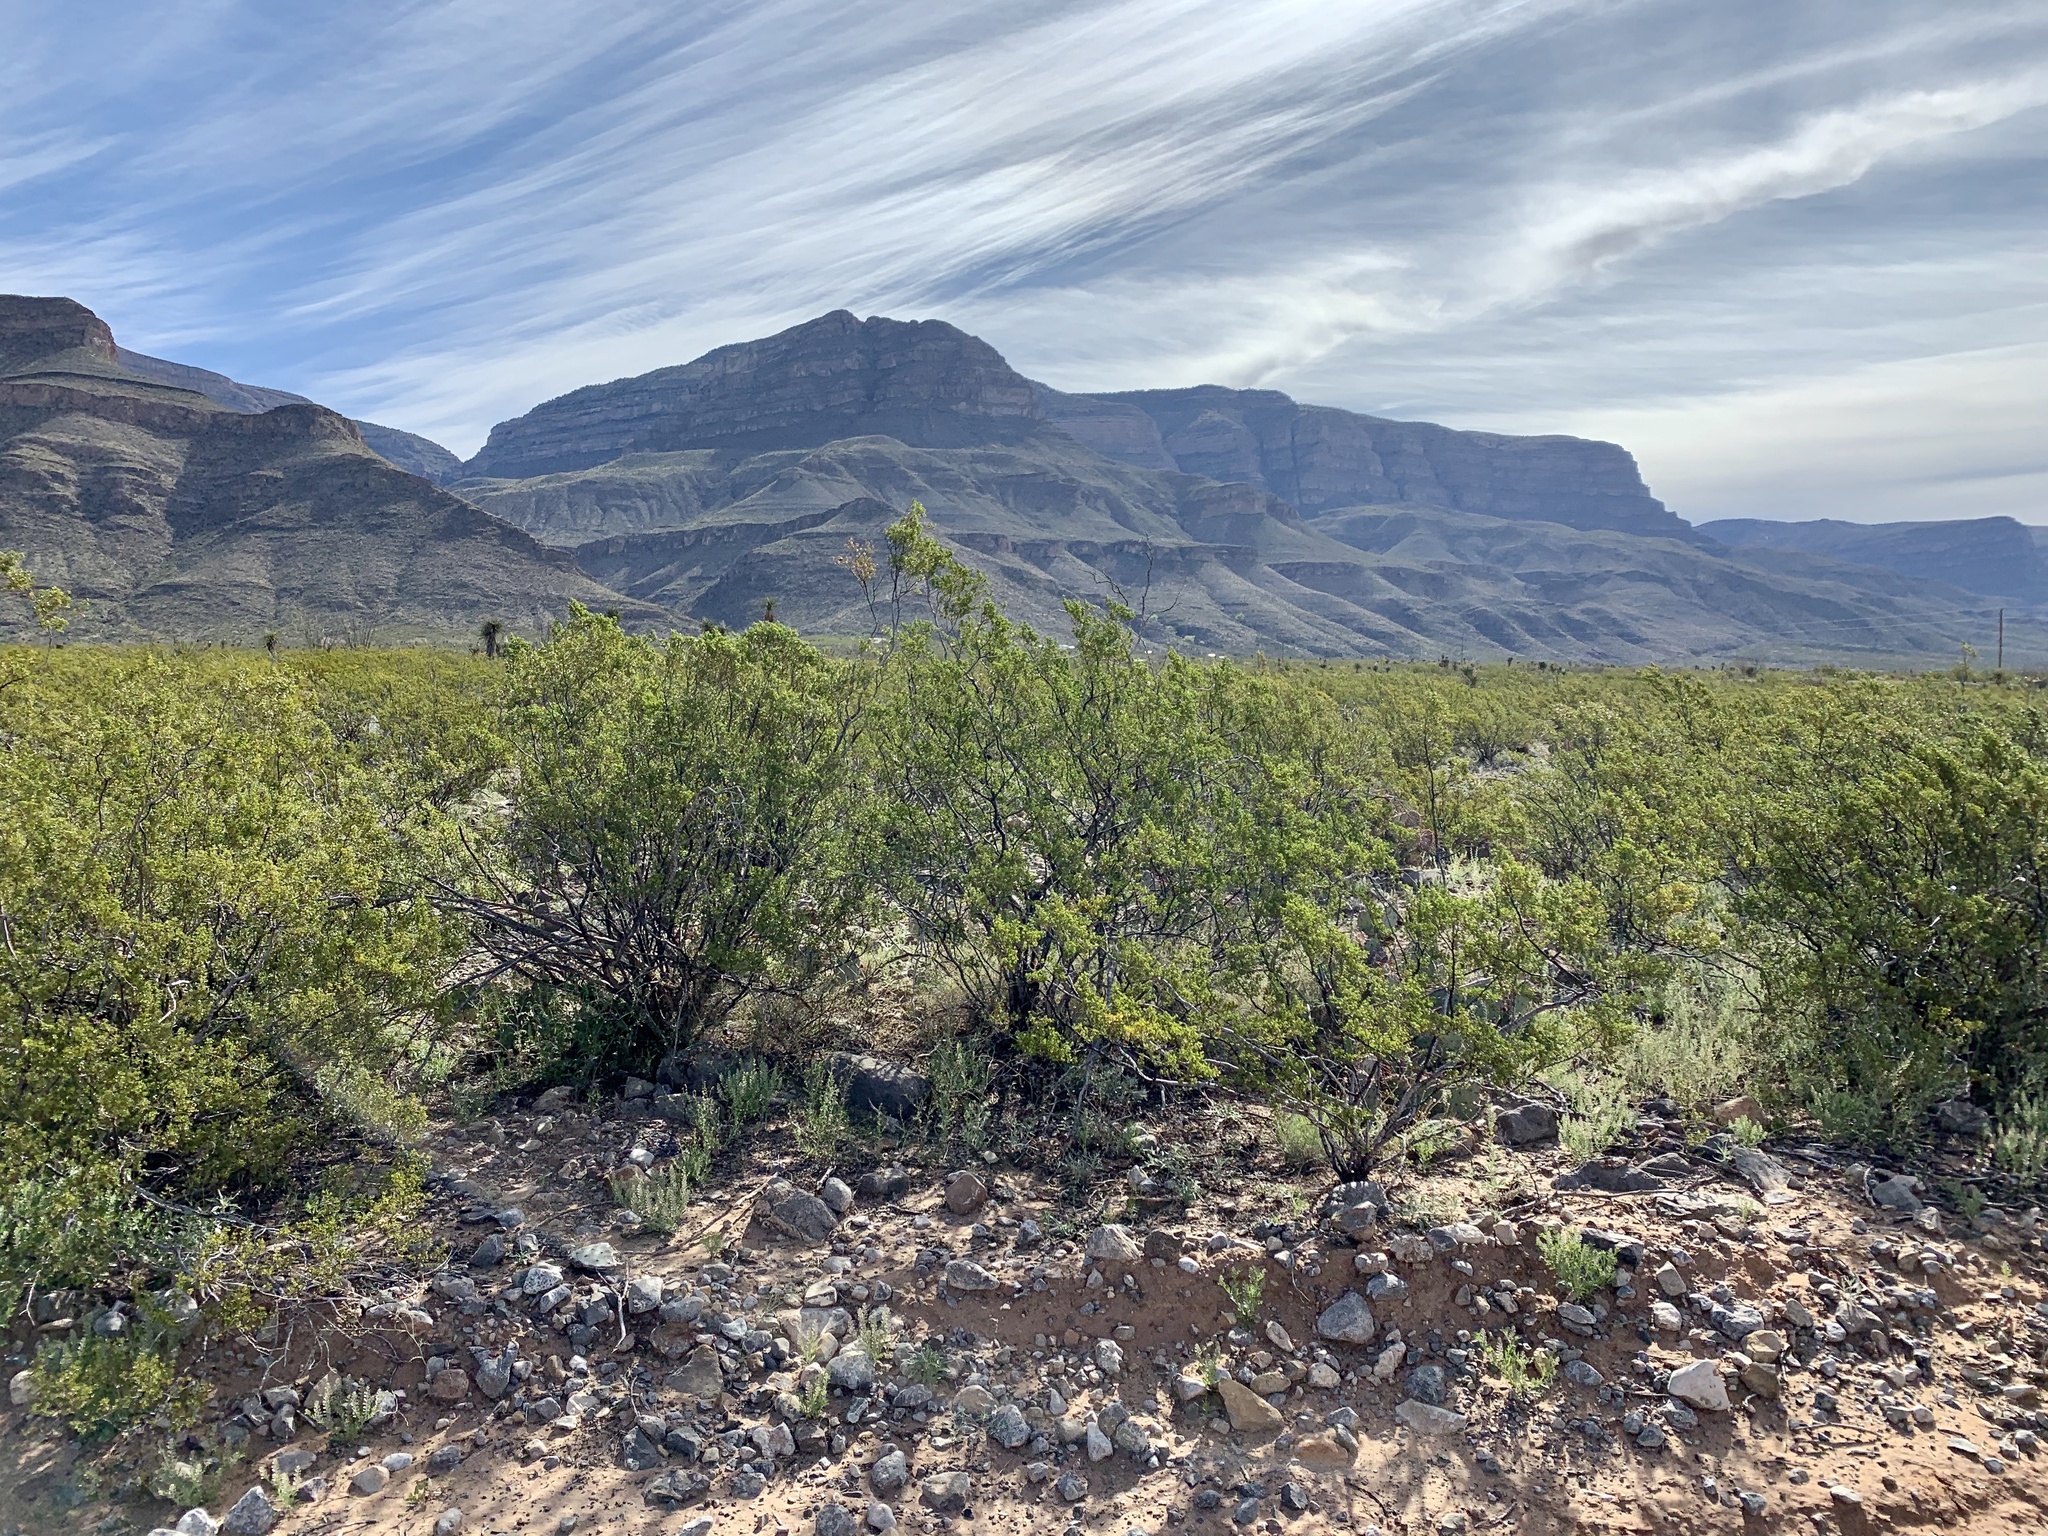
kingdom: Plantae
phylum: Tracheophyta
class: Magnoliopsida
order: Zygophyllales
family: Zygophyllaceae
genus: Larrea
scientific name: Larrea tridentata
